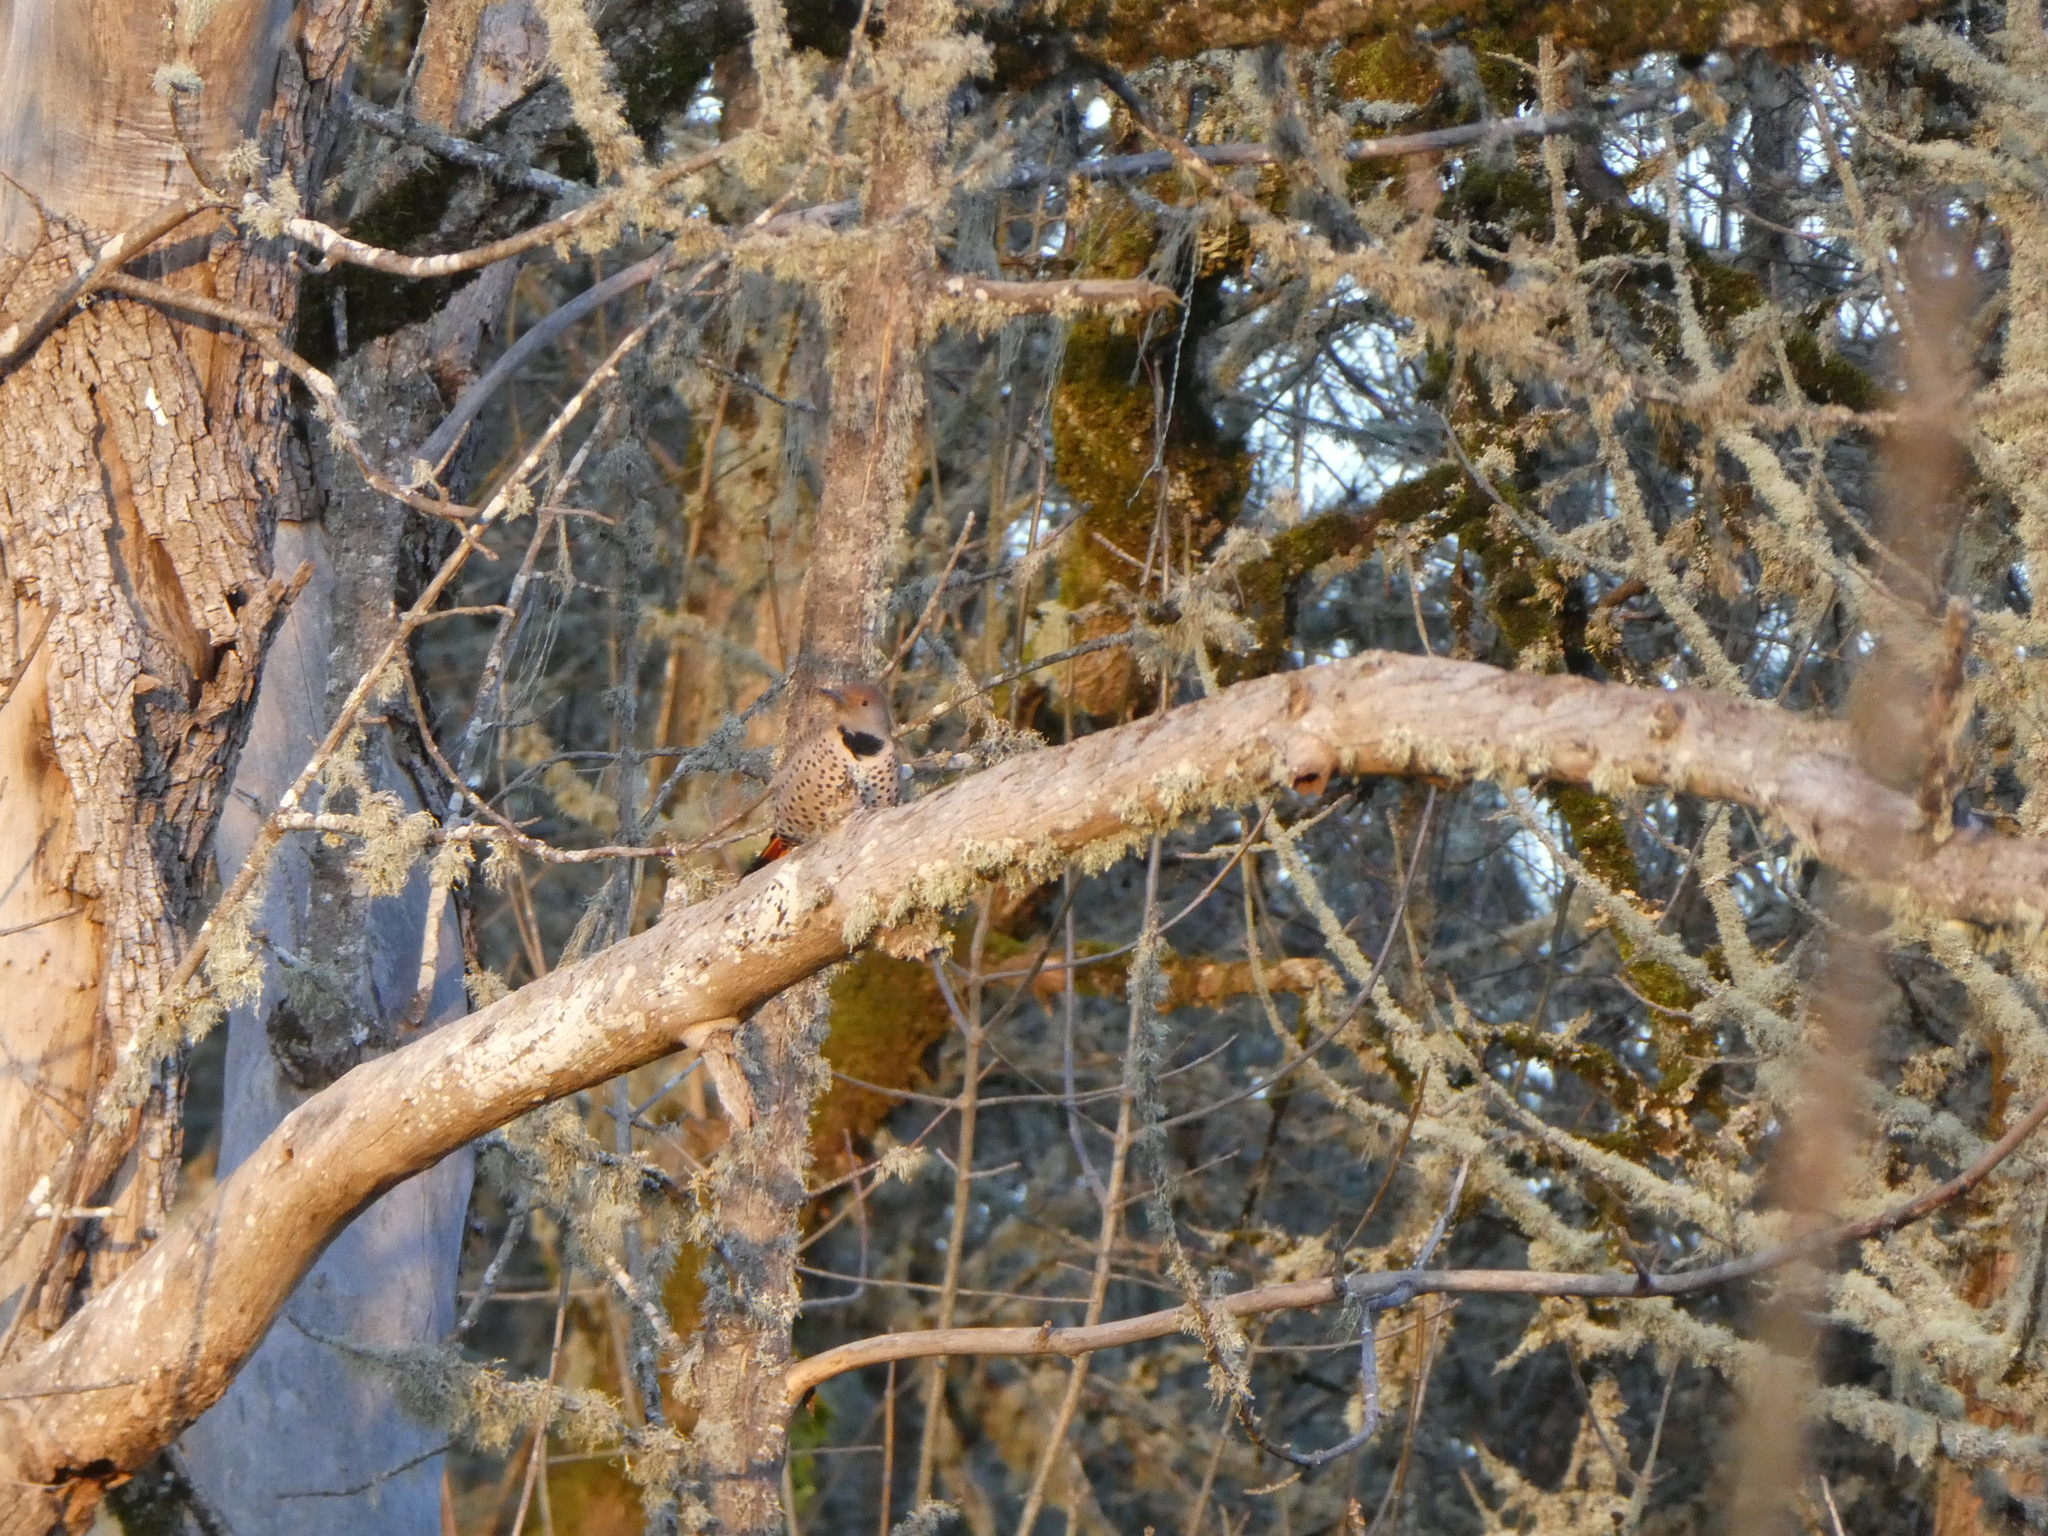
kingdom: Animalia
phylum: Chordata
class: Aves
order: Piciformes
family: Picidae
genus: Colaptes
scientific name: Colaptes auratus
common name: Northern flicker
